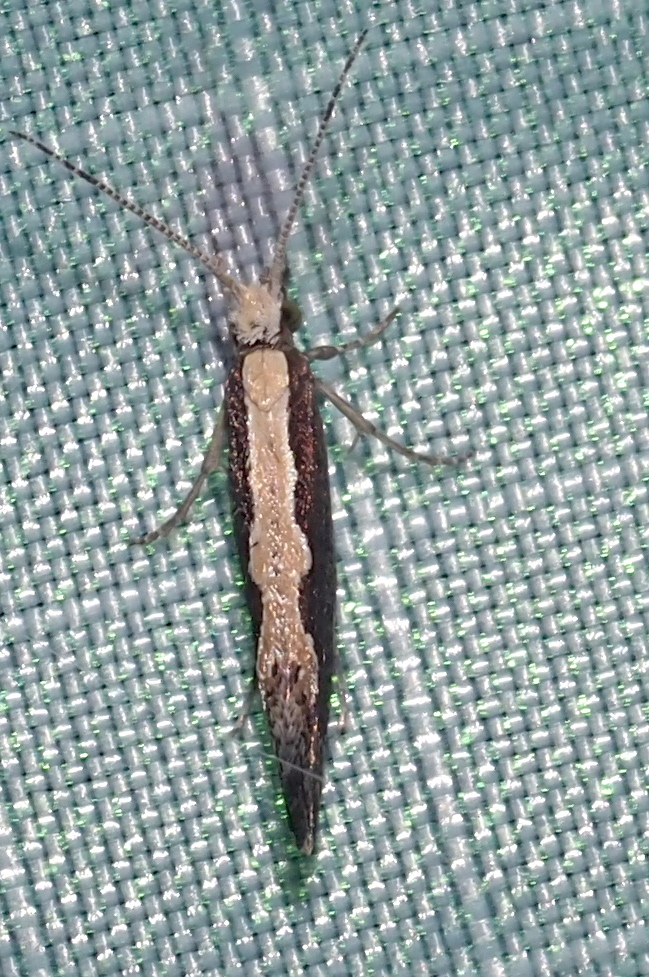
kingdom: Animalia
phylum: Arthropoda
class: Insecta
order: Lepidoptera
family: Plutellidae
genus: Plutella
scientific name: Plutella xylostella
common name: Diamond-back moth
